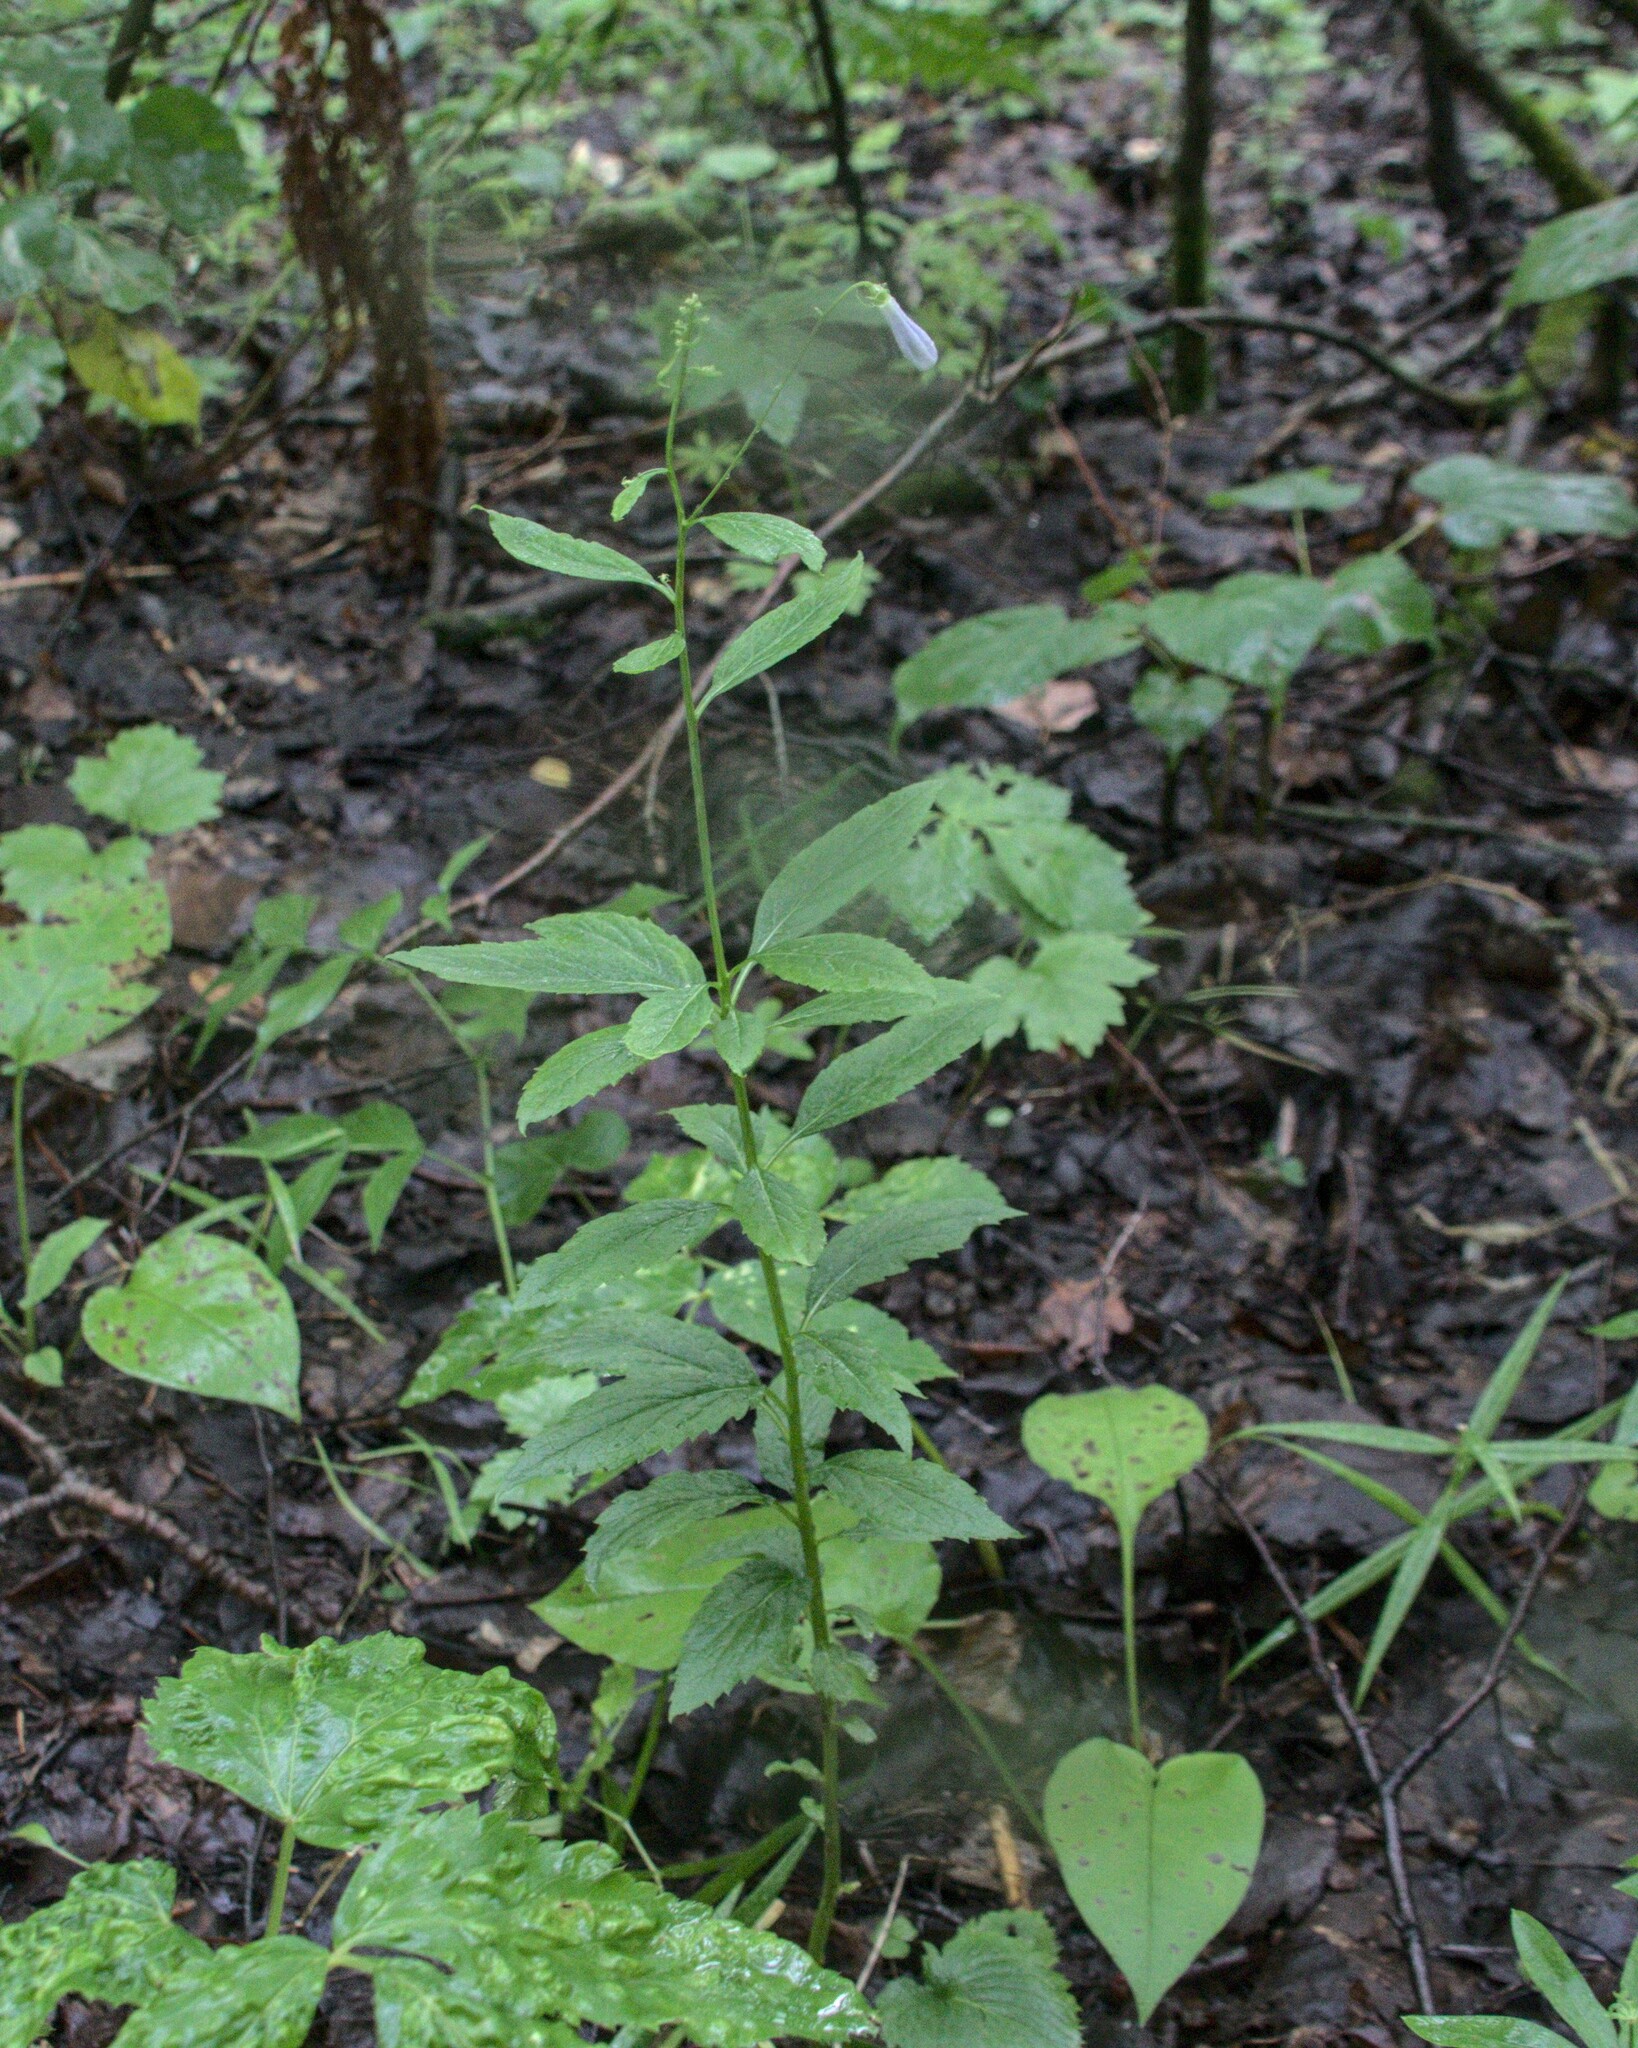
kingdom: Plantae
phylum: Tracheophyta
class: Magnoliopsida
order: Asterales
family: Campanulaceae
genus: Adenophora
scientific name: Adenophora liliifolia
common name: Lilyleaf ladybells
